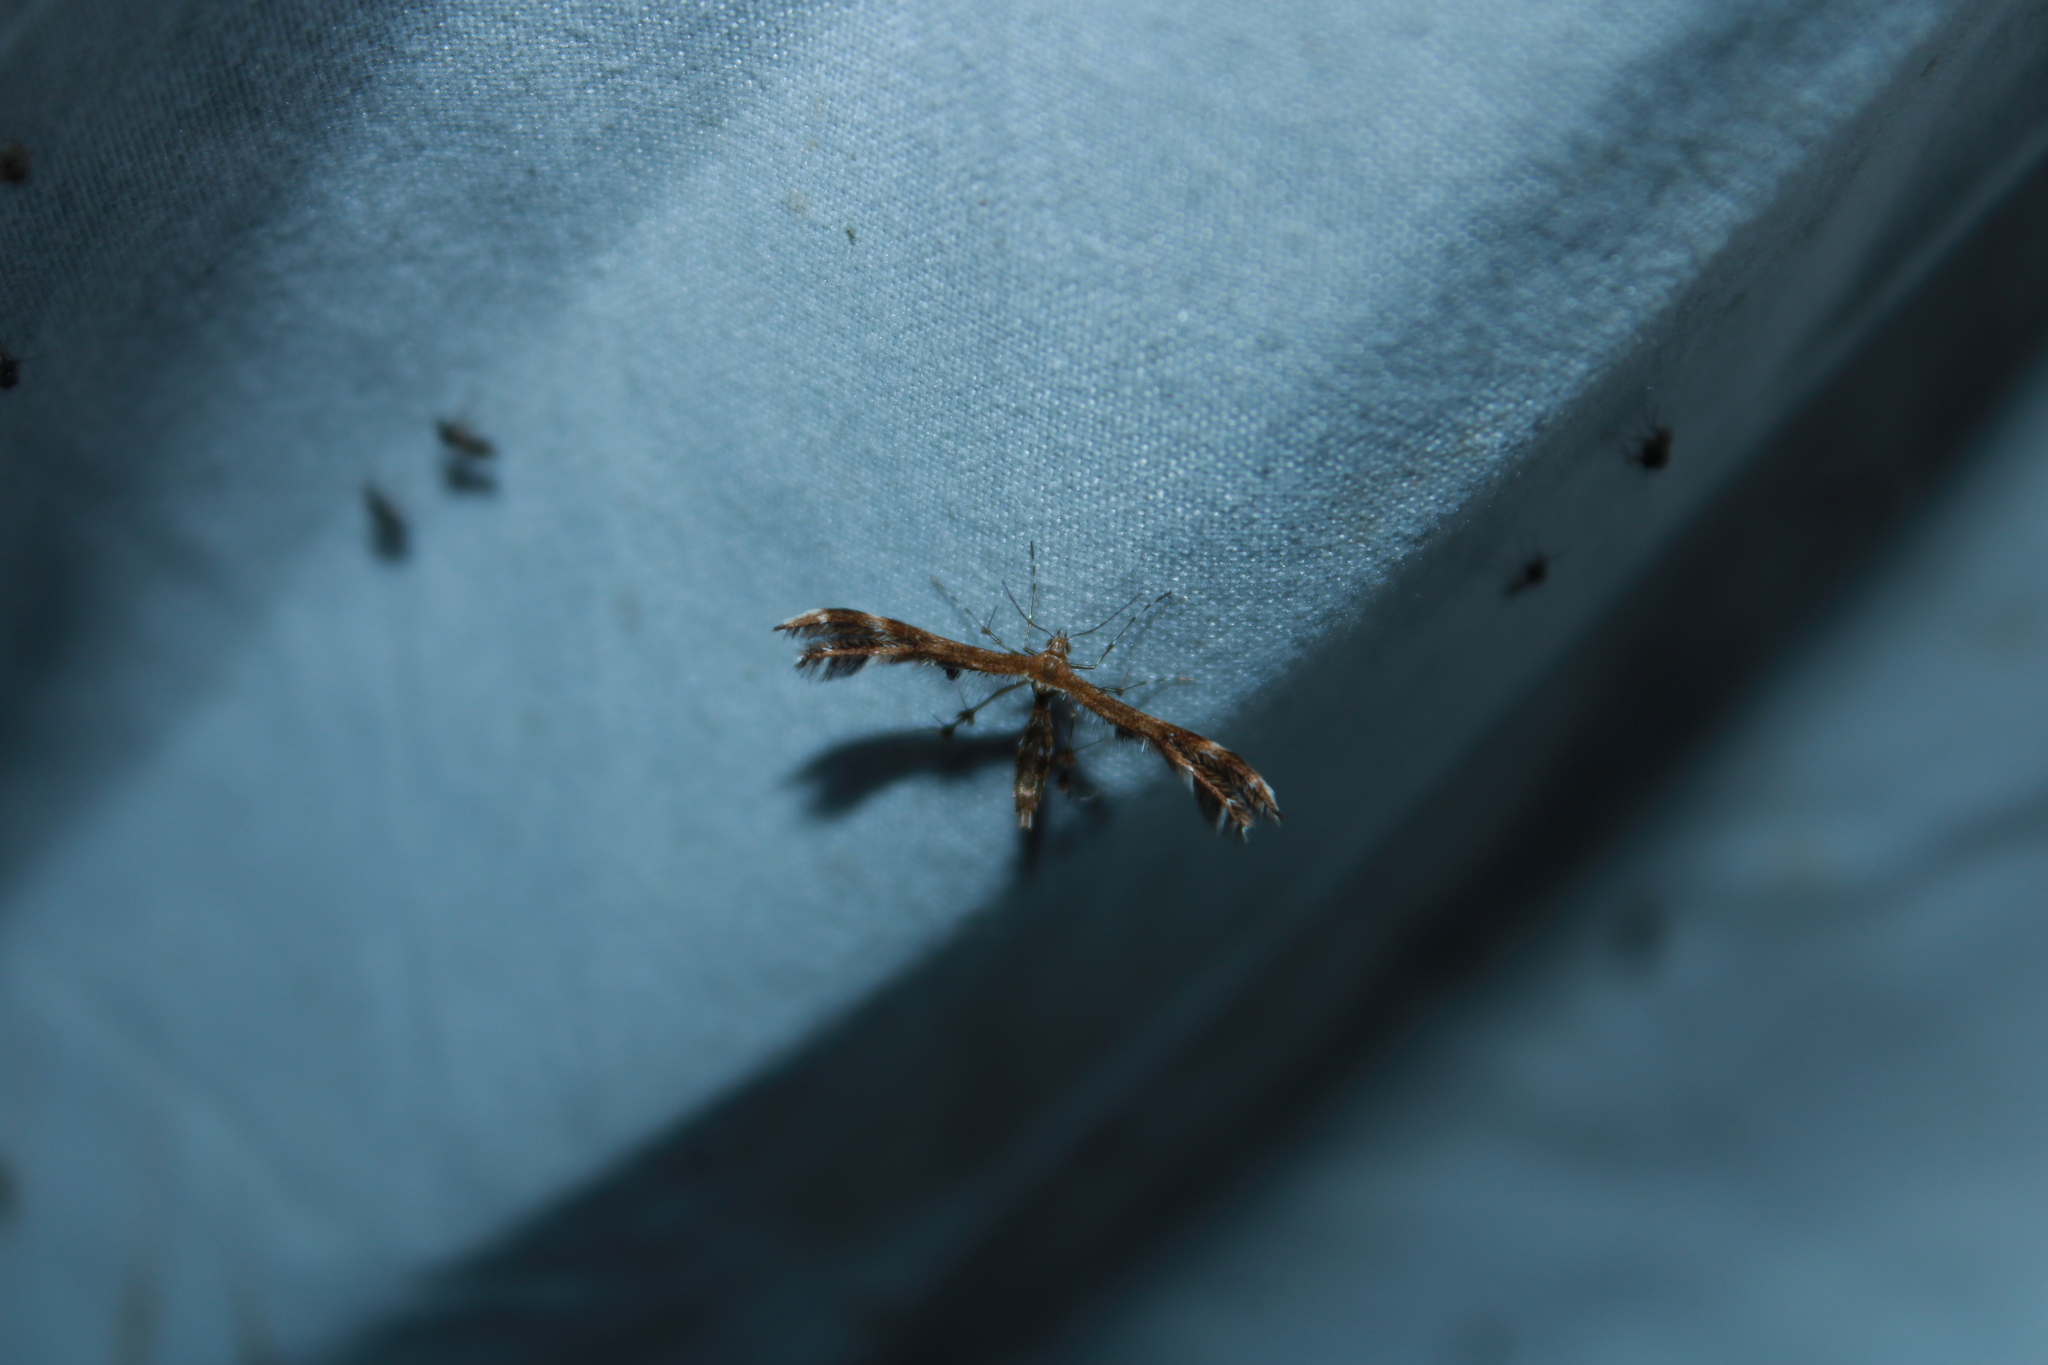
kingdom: Animalia
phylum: Arthropoda
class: Insecta
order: Lepidoptera
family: Pterophoridae
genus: Dejongia
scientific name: Dejongia lobidactylus
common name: Lobed plume moth
